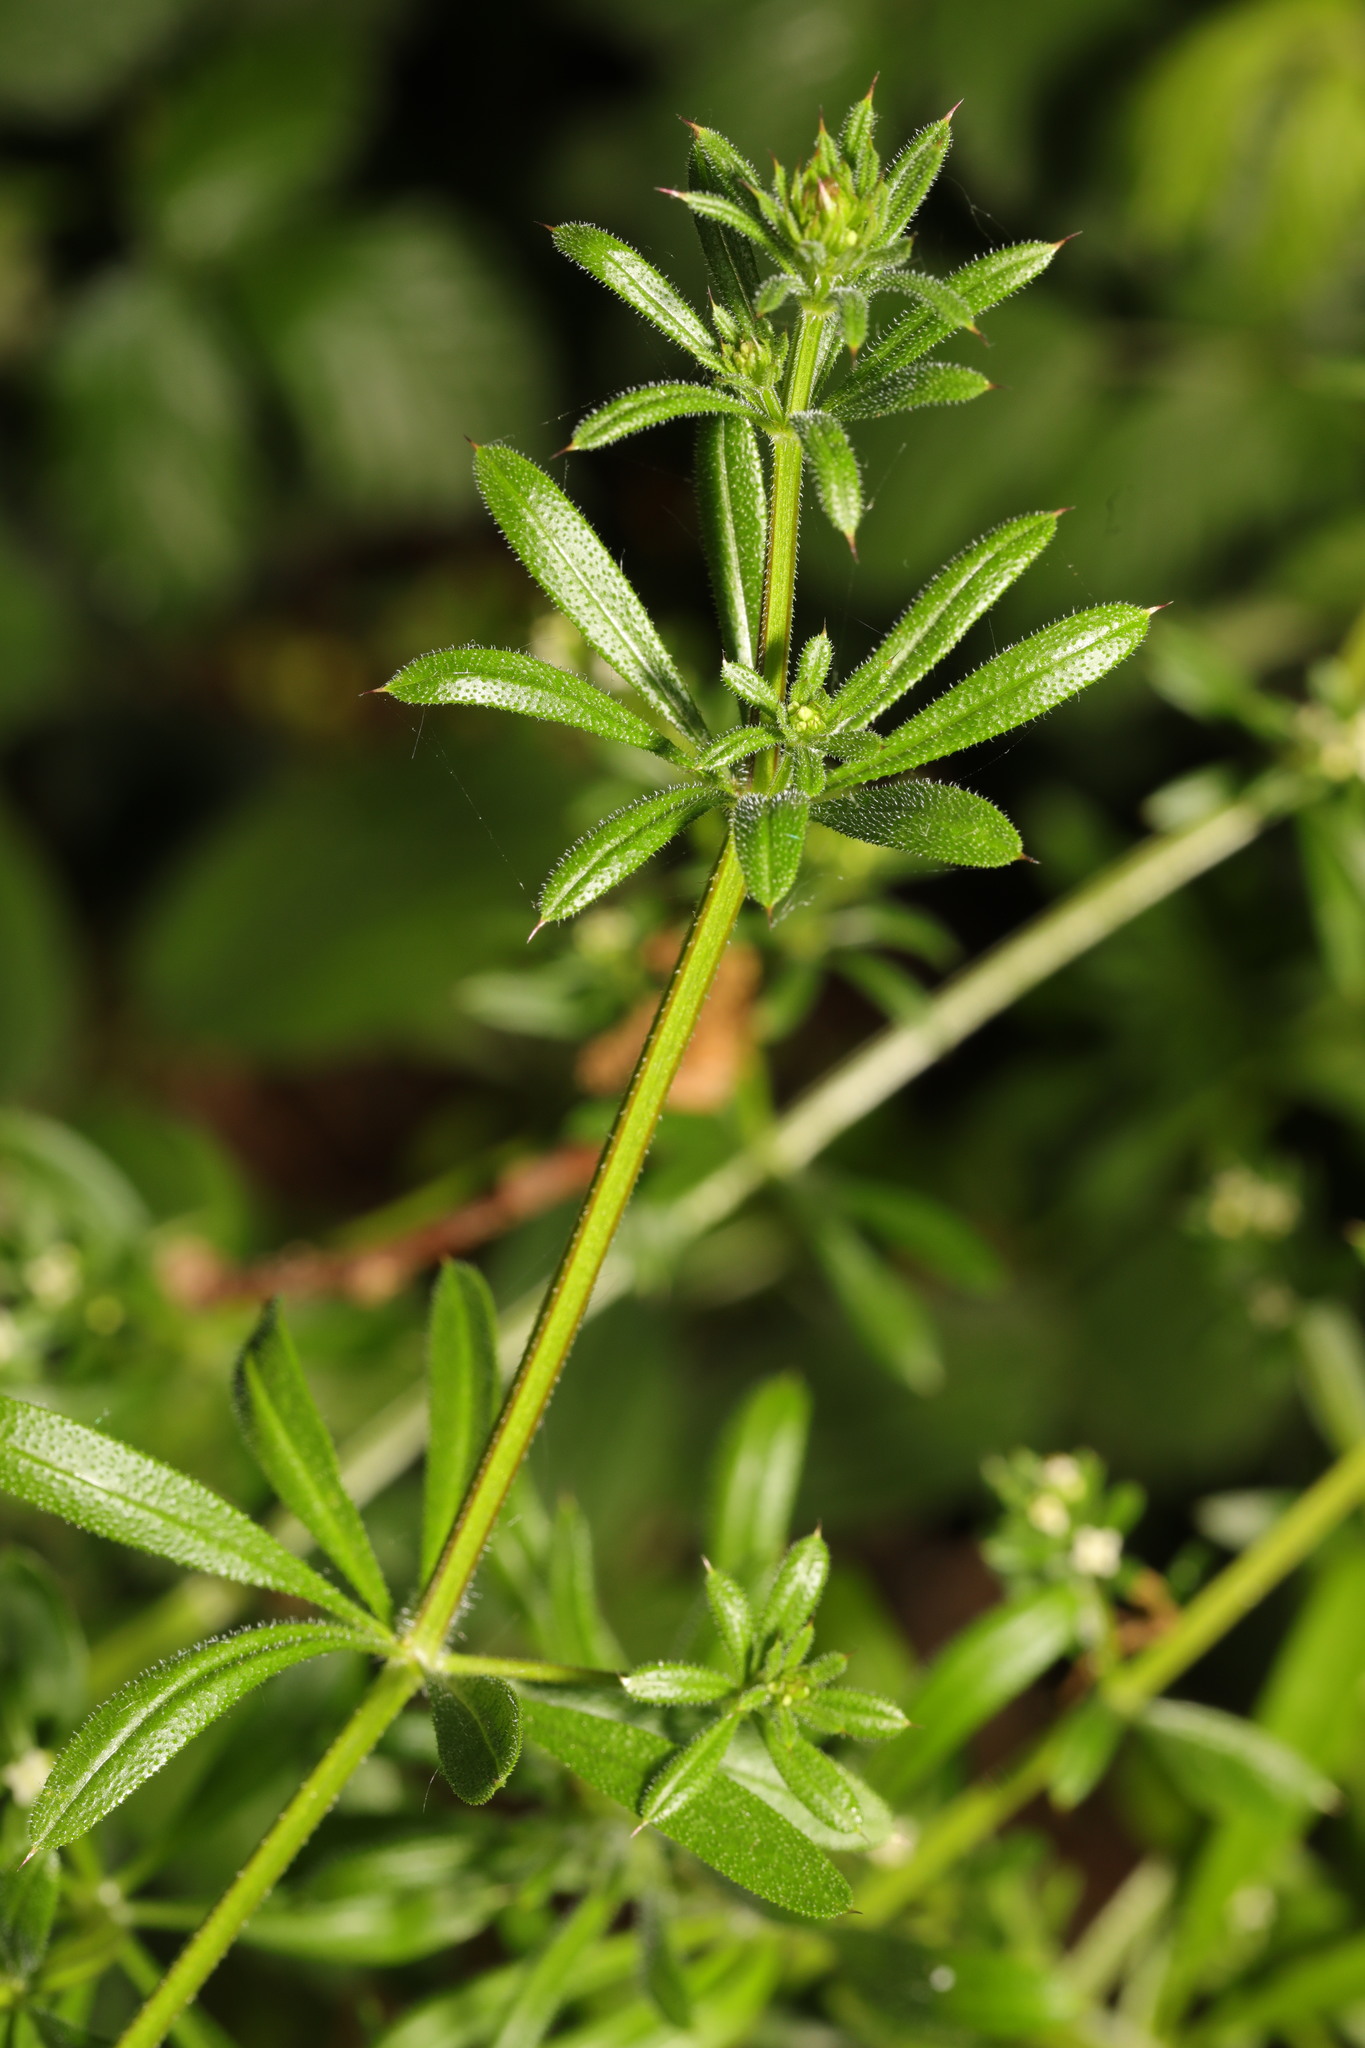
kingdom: Plantae
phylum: Tracheophyta
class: Magnoliopsida
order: Gentianales
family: Rubiaceae
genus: Galium
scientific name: Galium aparine
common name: Cleavers
